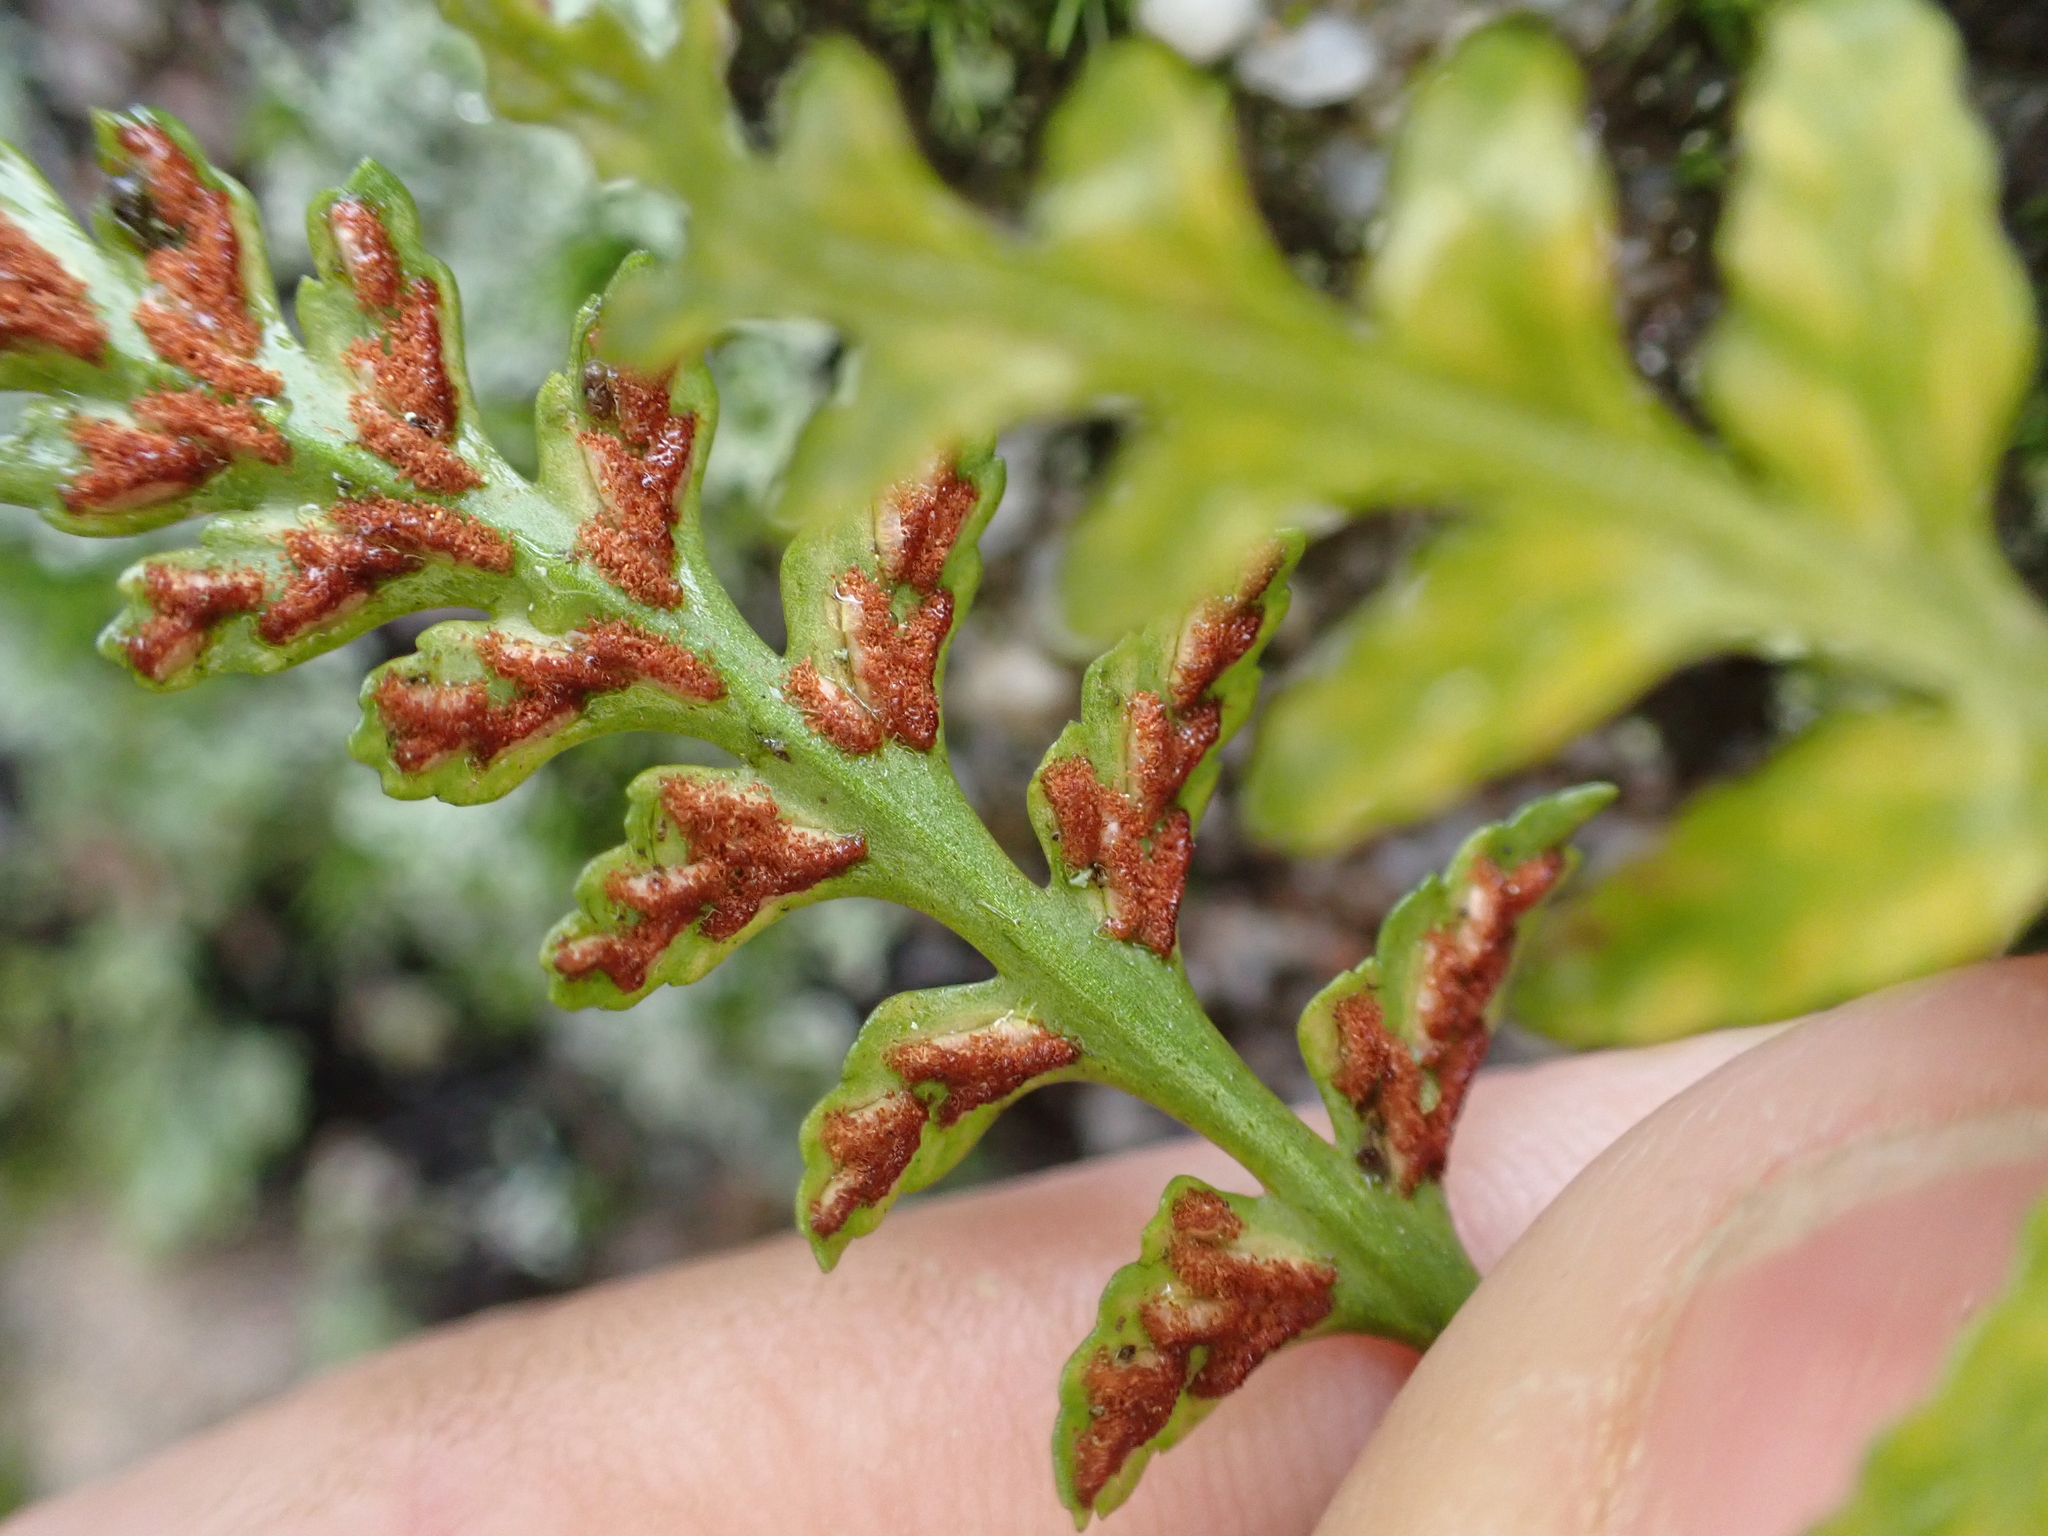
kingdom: Plantae
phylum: Tracheophyta
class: Polypodiopsida
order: Polypodiales
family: Aspleniaceae
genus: Asplenium
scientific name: Asplenium trudellii
